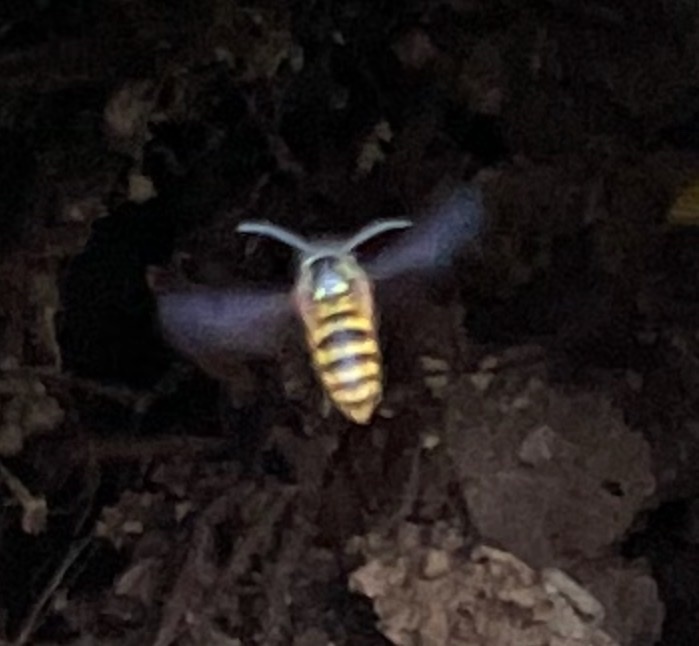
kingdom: Animalia
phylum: Arthropoda
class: Insecta
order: Hymenoptera
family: Vespidae
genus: Vespula
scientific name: Vespula
